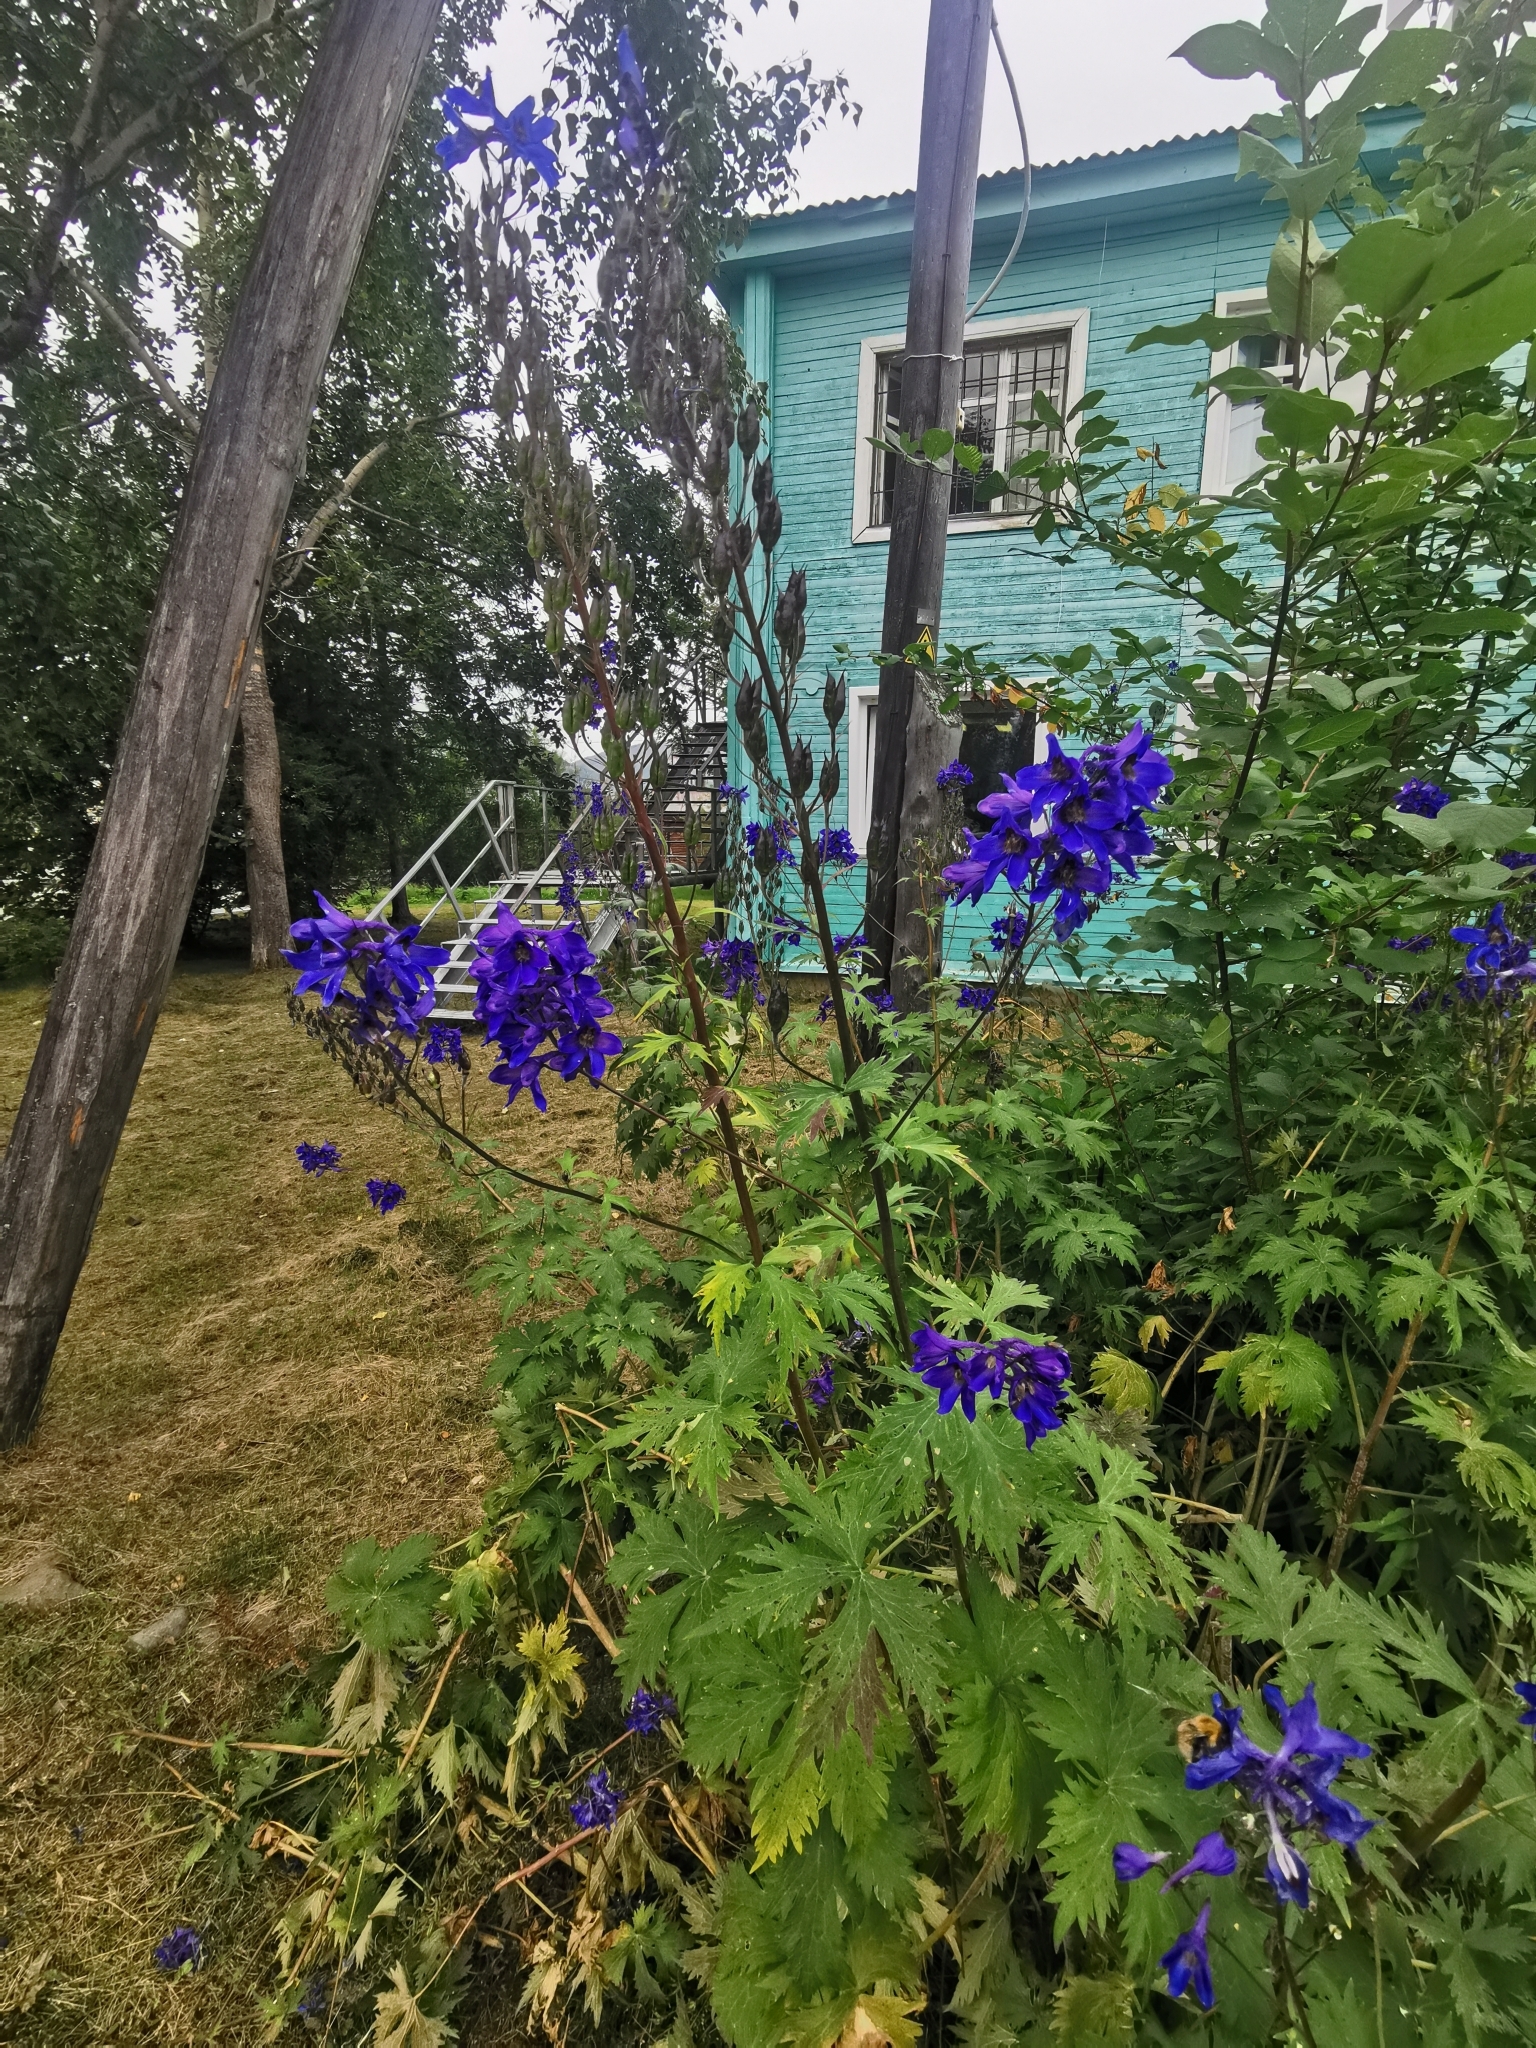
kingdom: Plantae
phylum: Tracheophyta
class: Magnoliopsida
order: Ranunculales
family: Ranunculaceae
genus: Delphinium
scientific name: Delphinium elatum
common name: Candle larkspur
